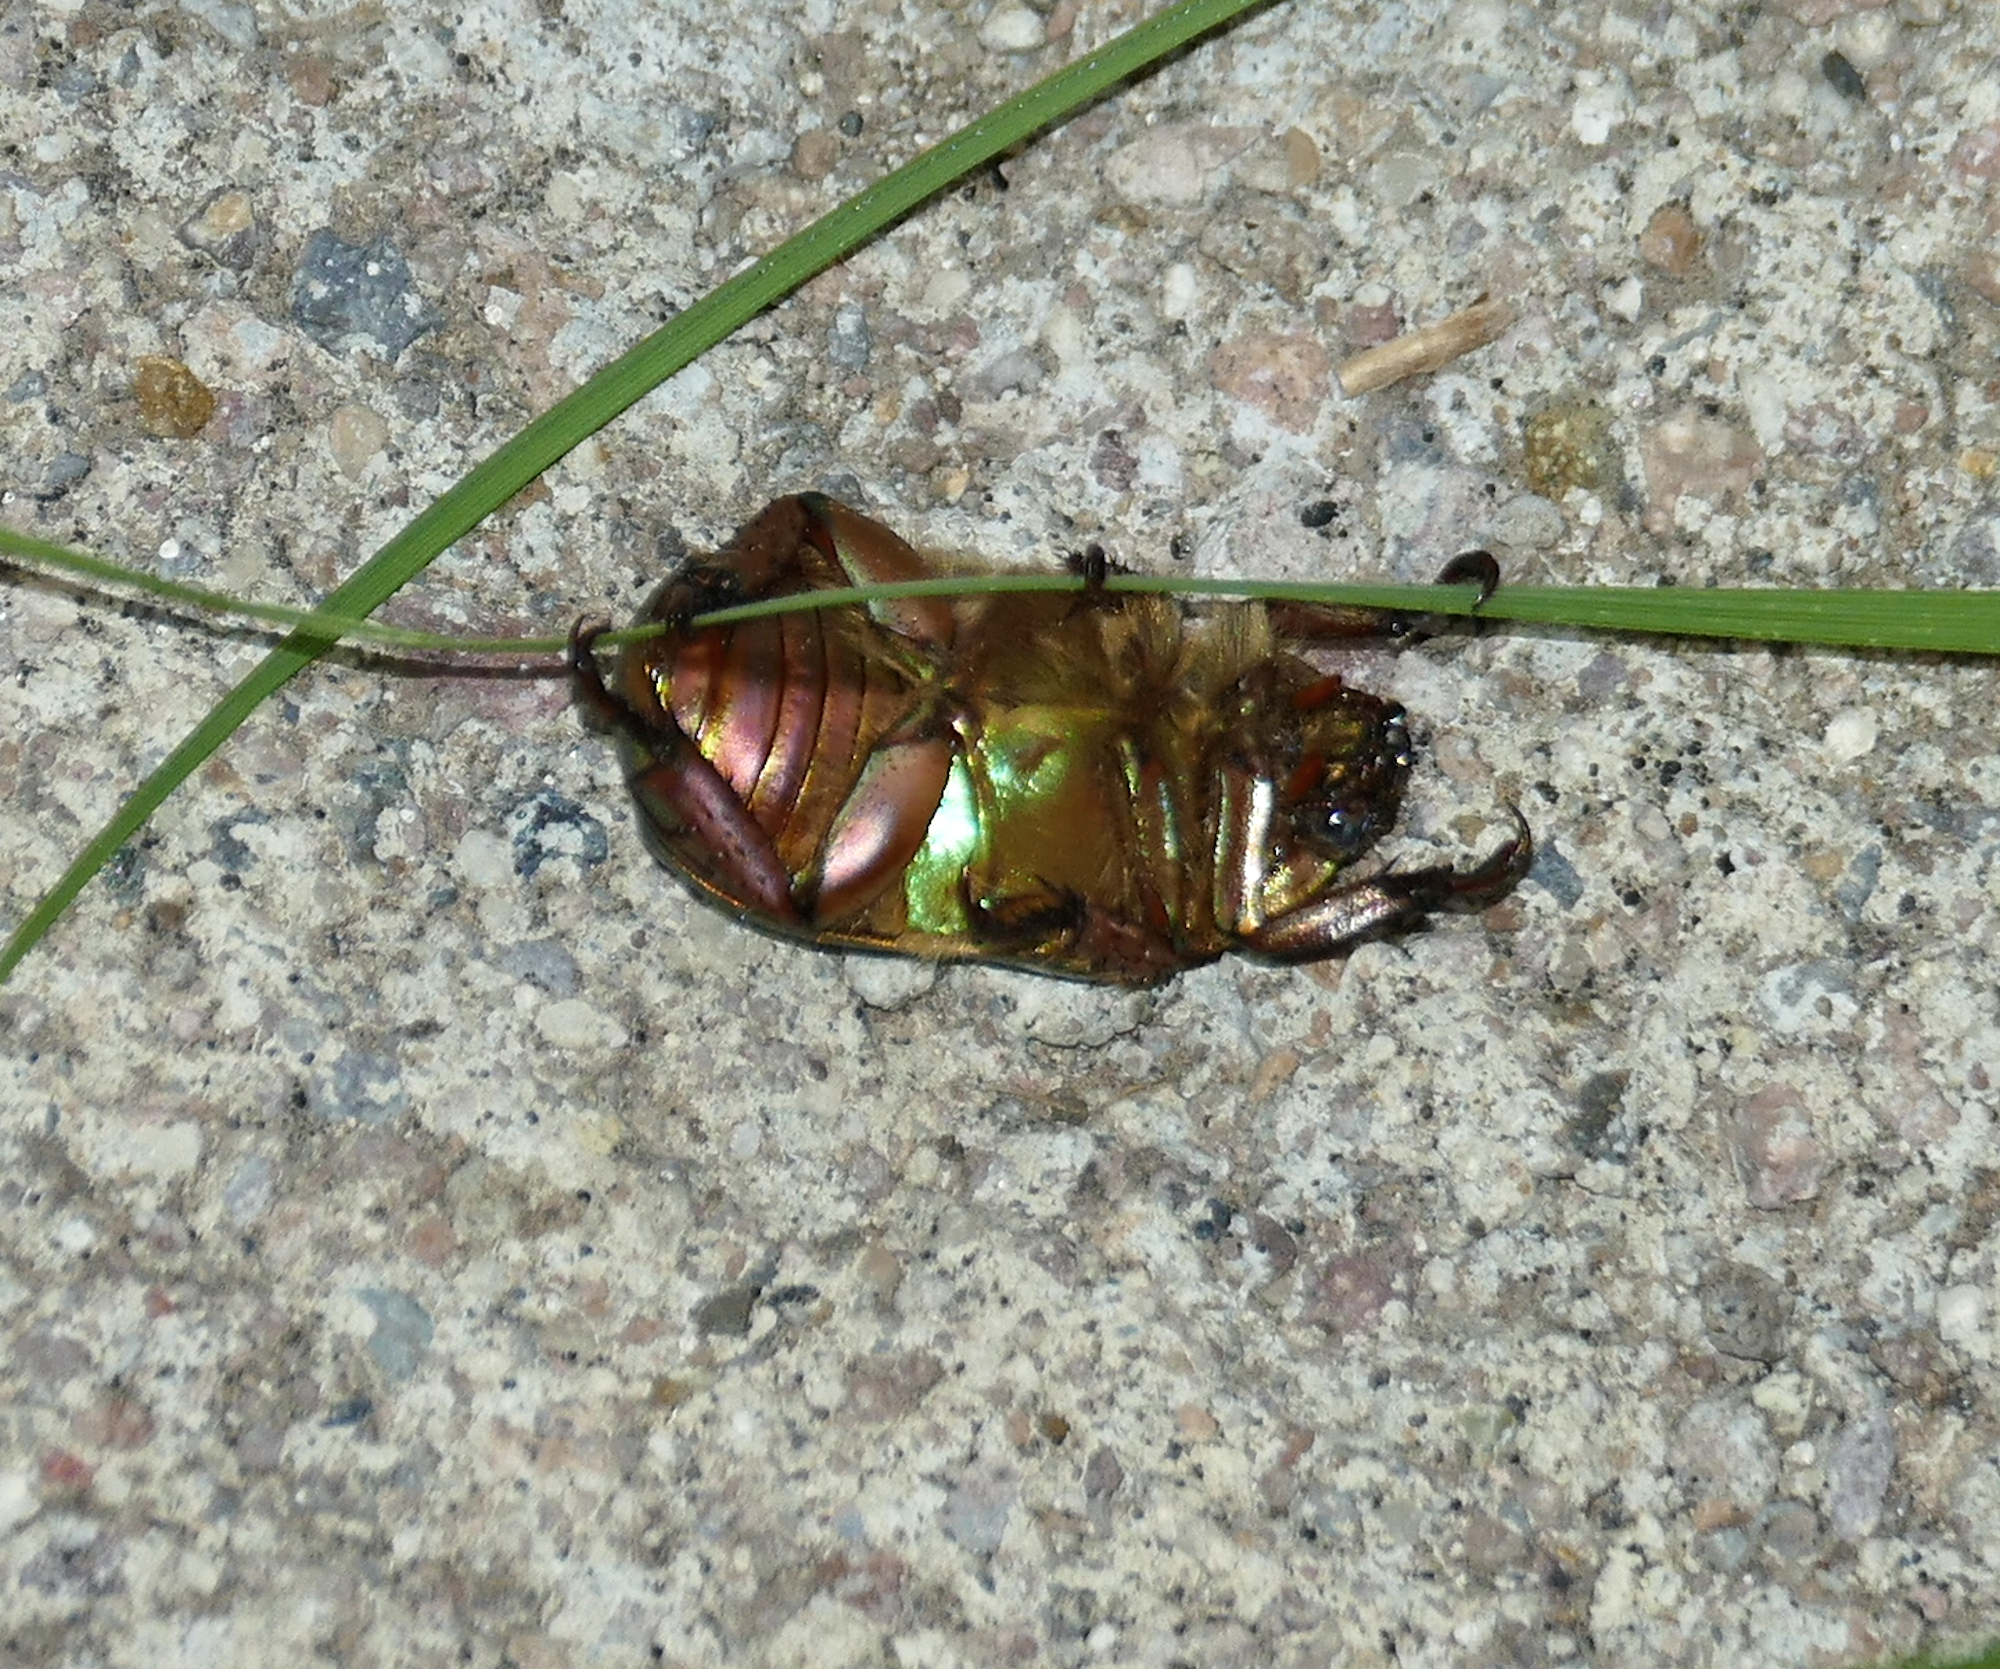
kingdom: Animalia
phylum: Arthropoda
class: Insecta
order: Coleoptera
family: Scarabaeidae
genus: Chrysina
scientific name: Chrysina lecontei
